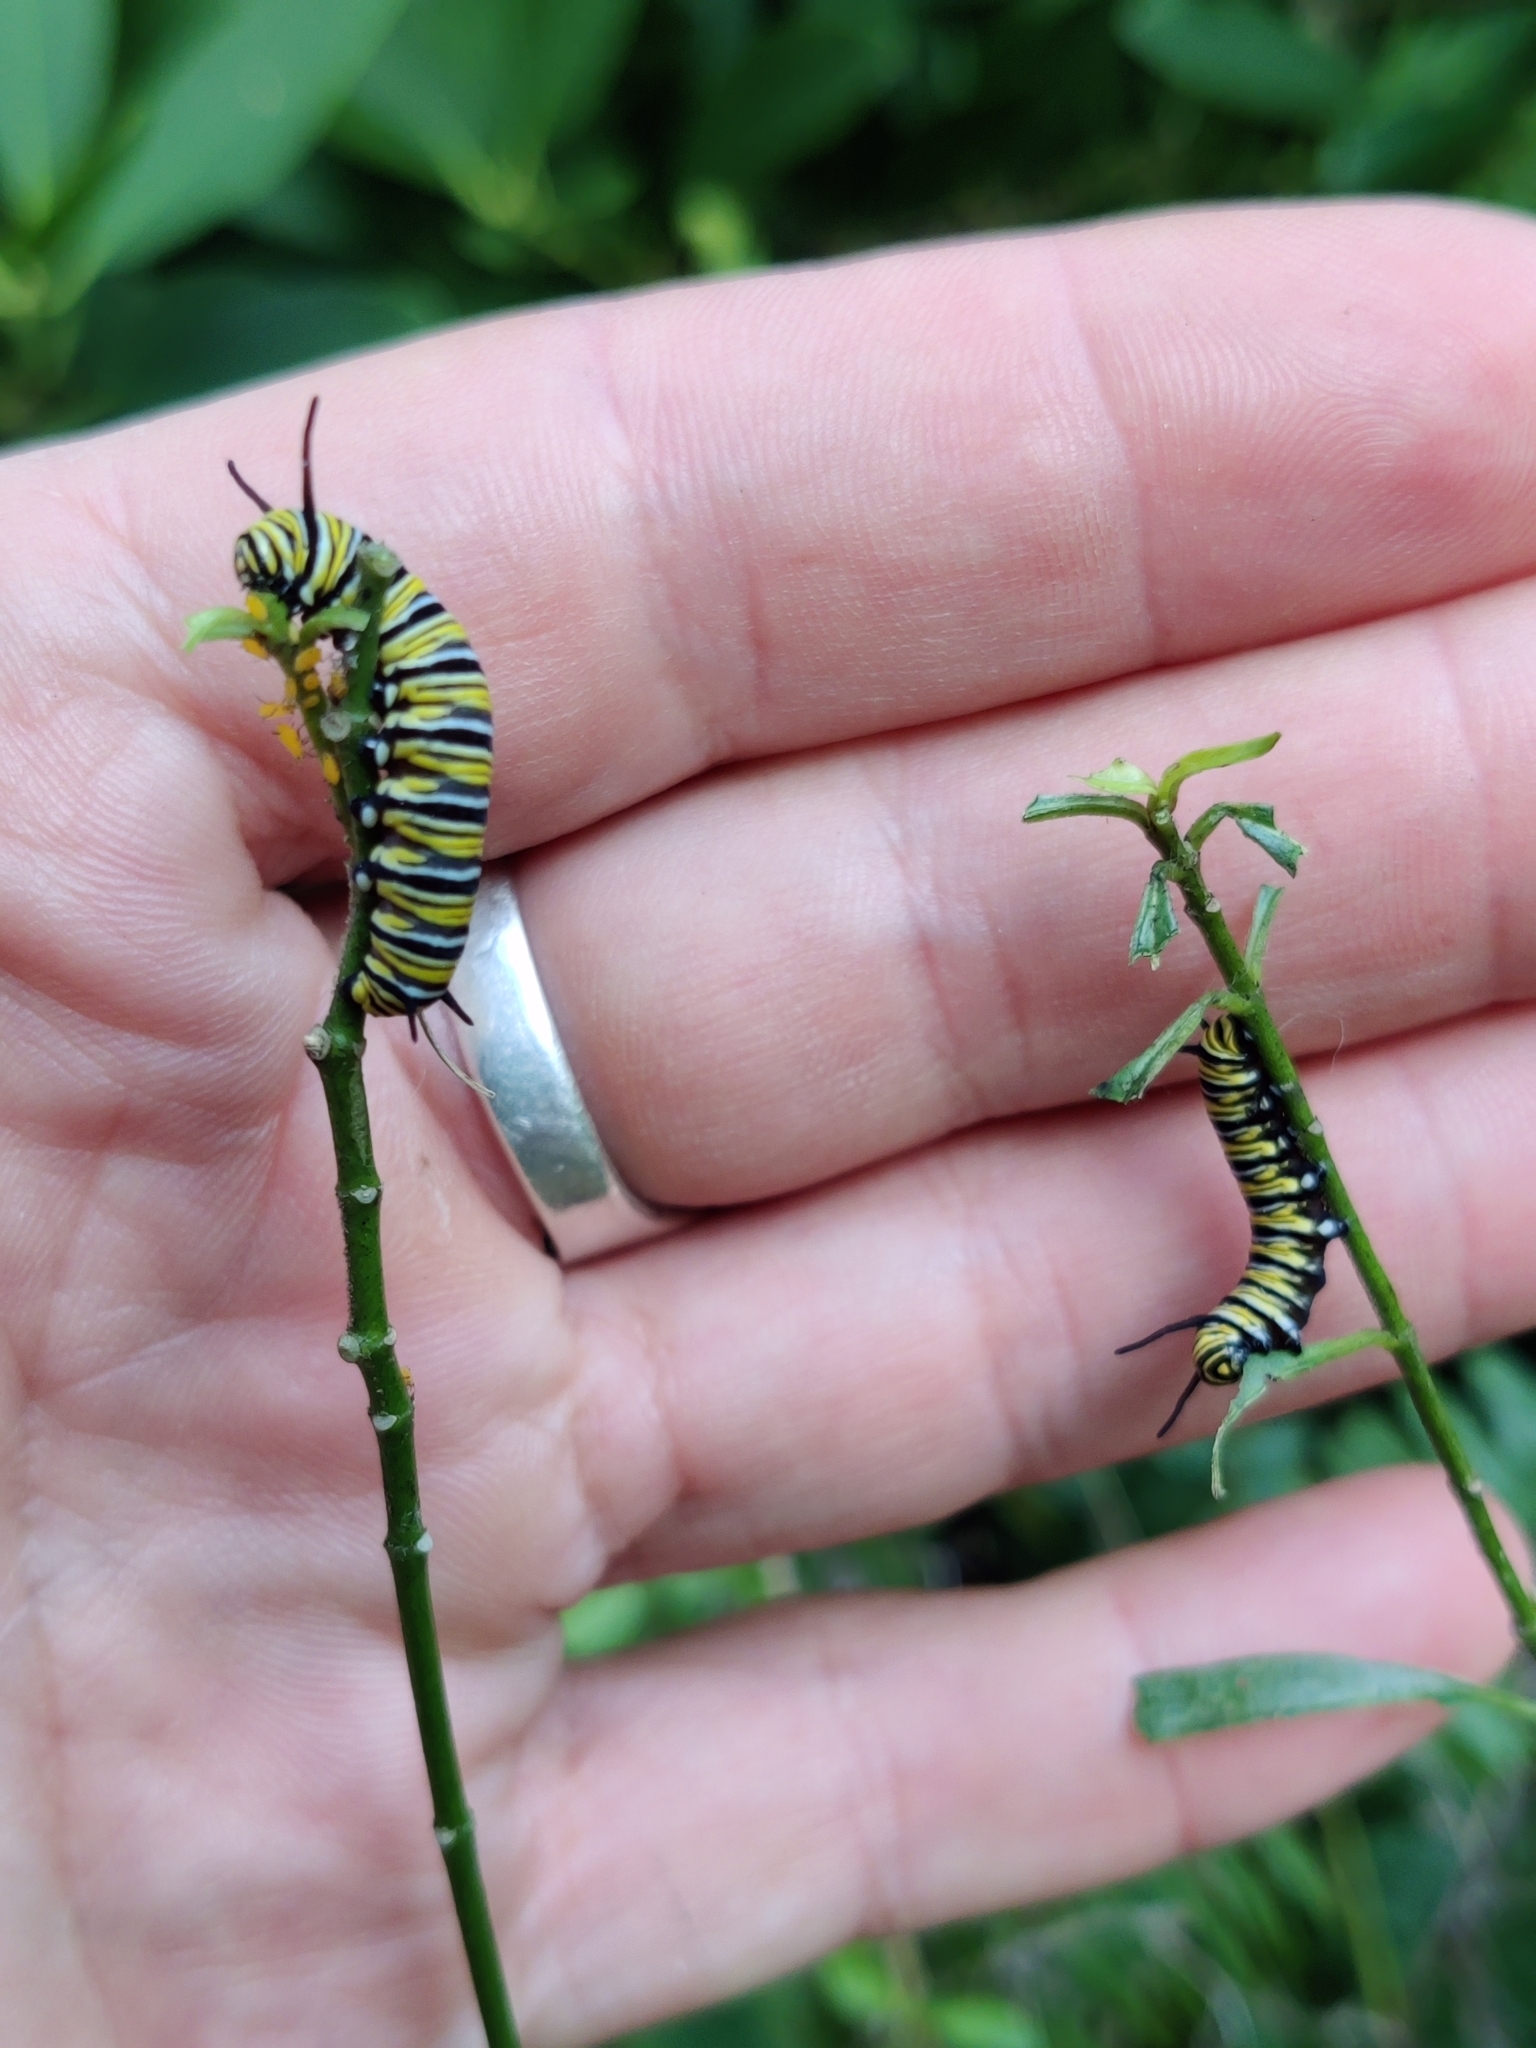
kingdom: Animalia
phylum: Arthropoda
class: Insecta
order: Lepidoptera
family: Nymphalidae
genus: Danaus
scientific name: Danaus plexippus
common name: Monarch
